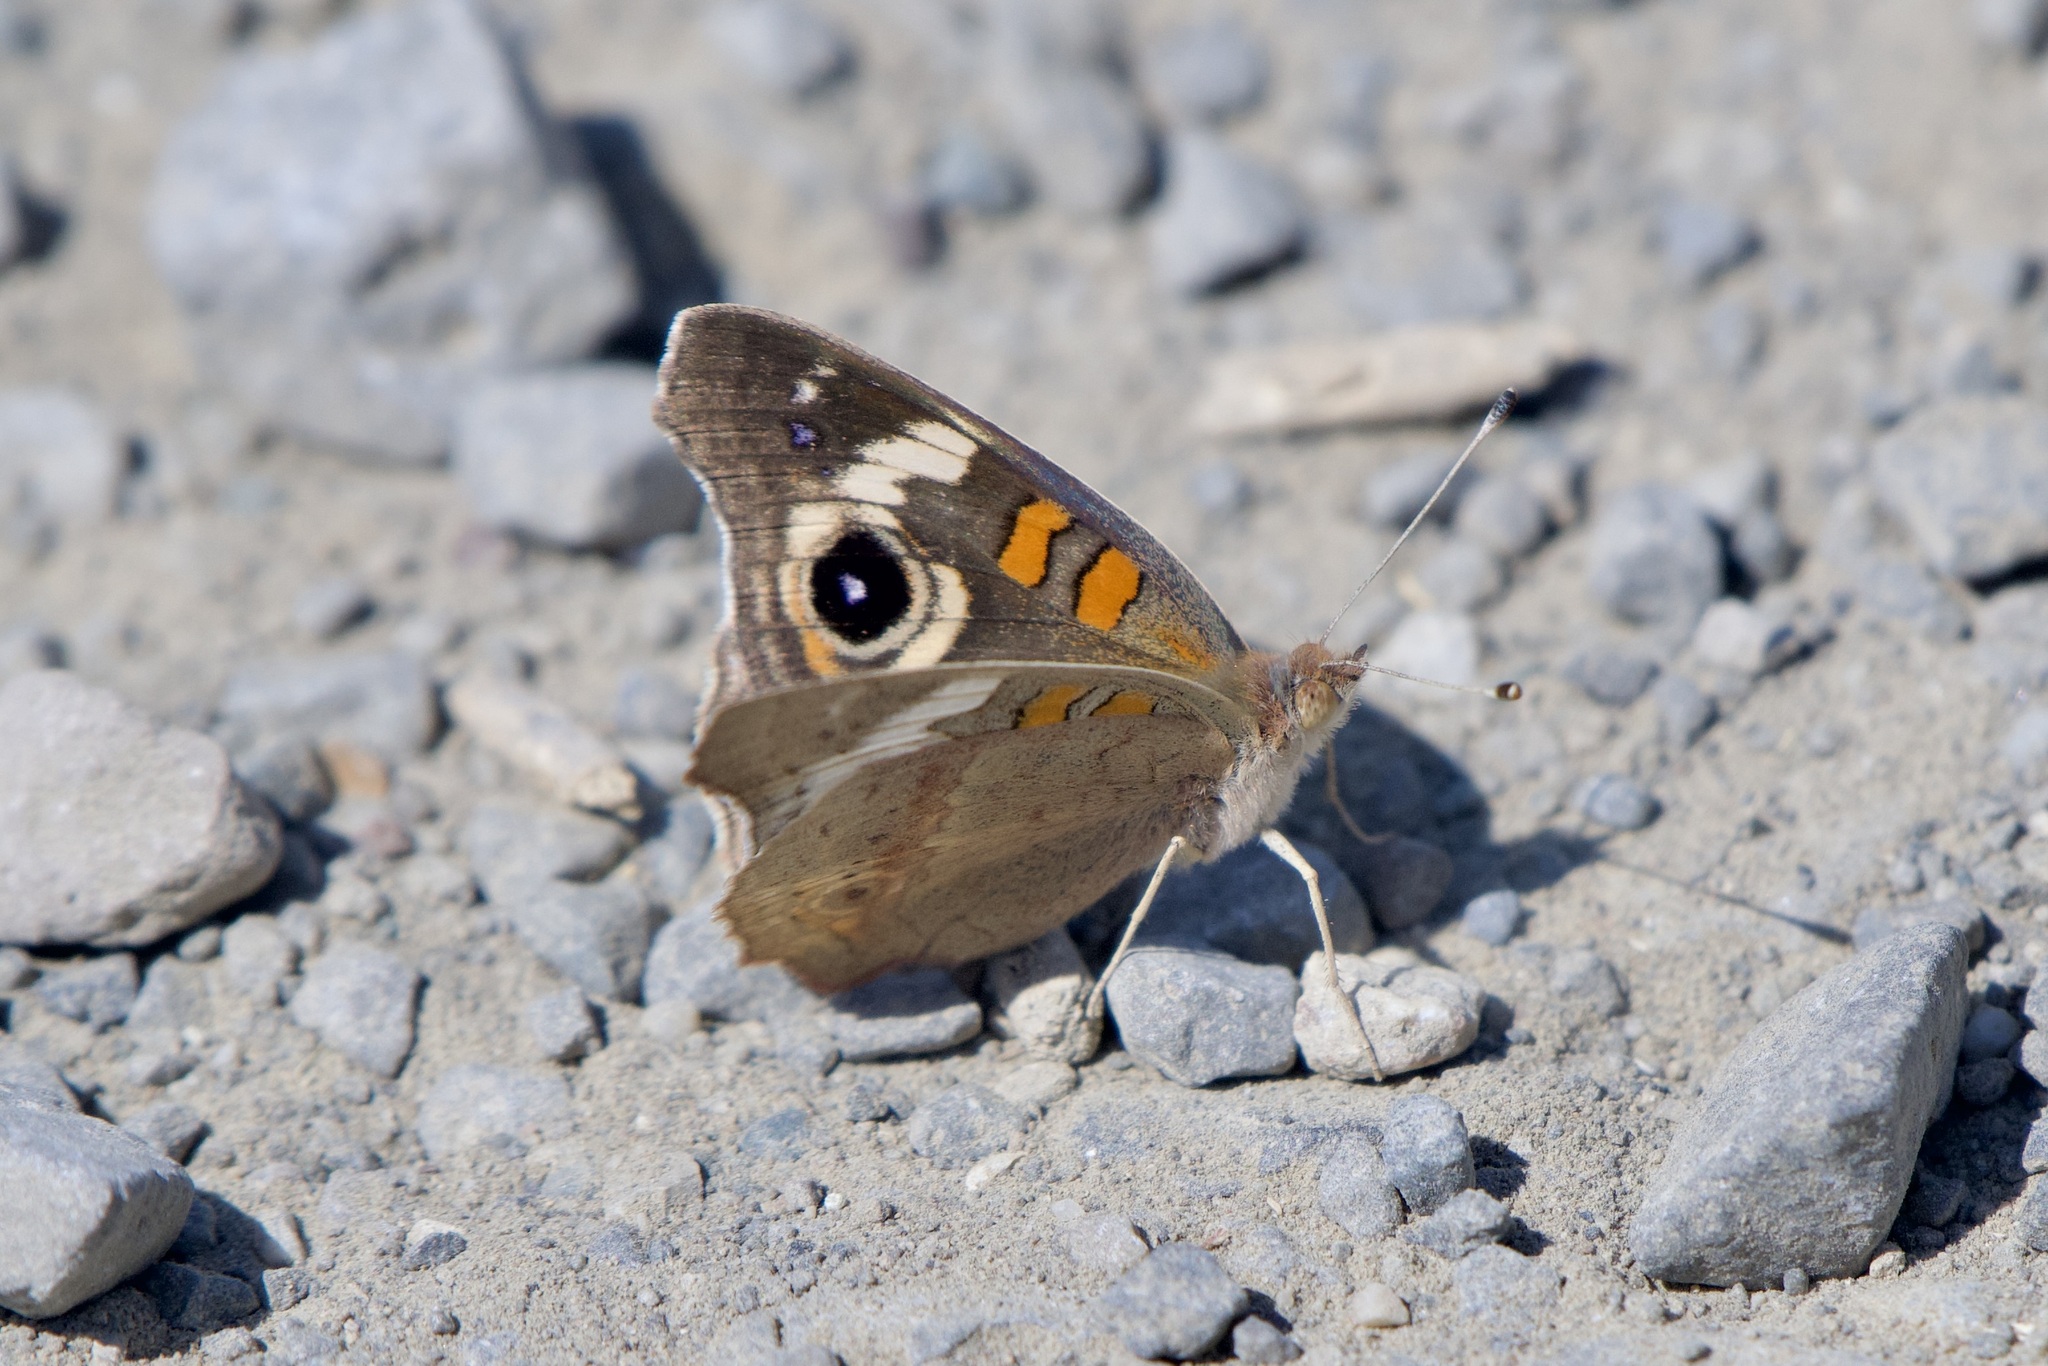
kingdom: Animalia
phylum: Arthropoda
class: Insecta
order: Lepidoptera
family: Nymphalidae
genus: Junonia
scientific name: Junonia grisea
